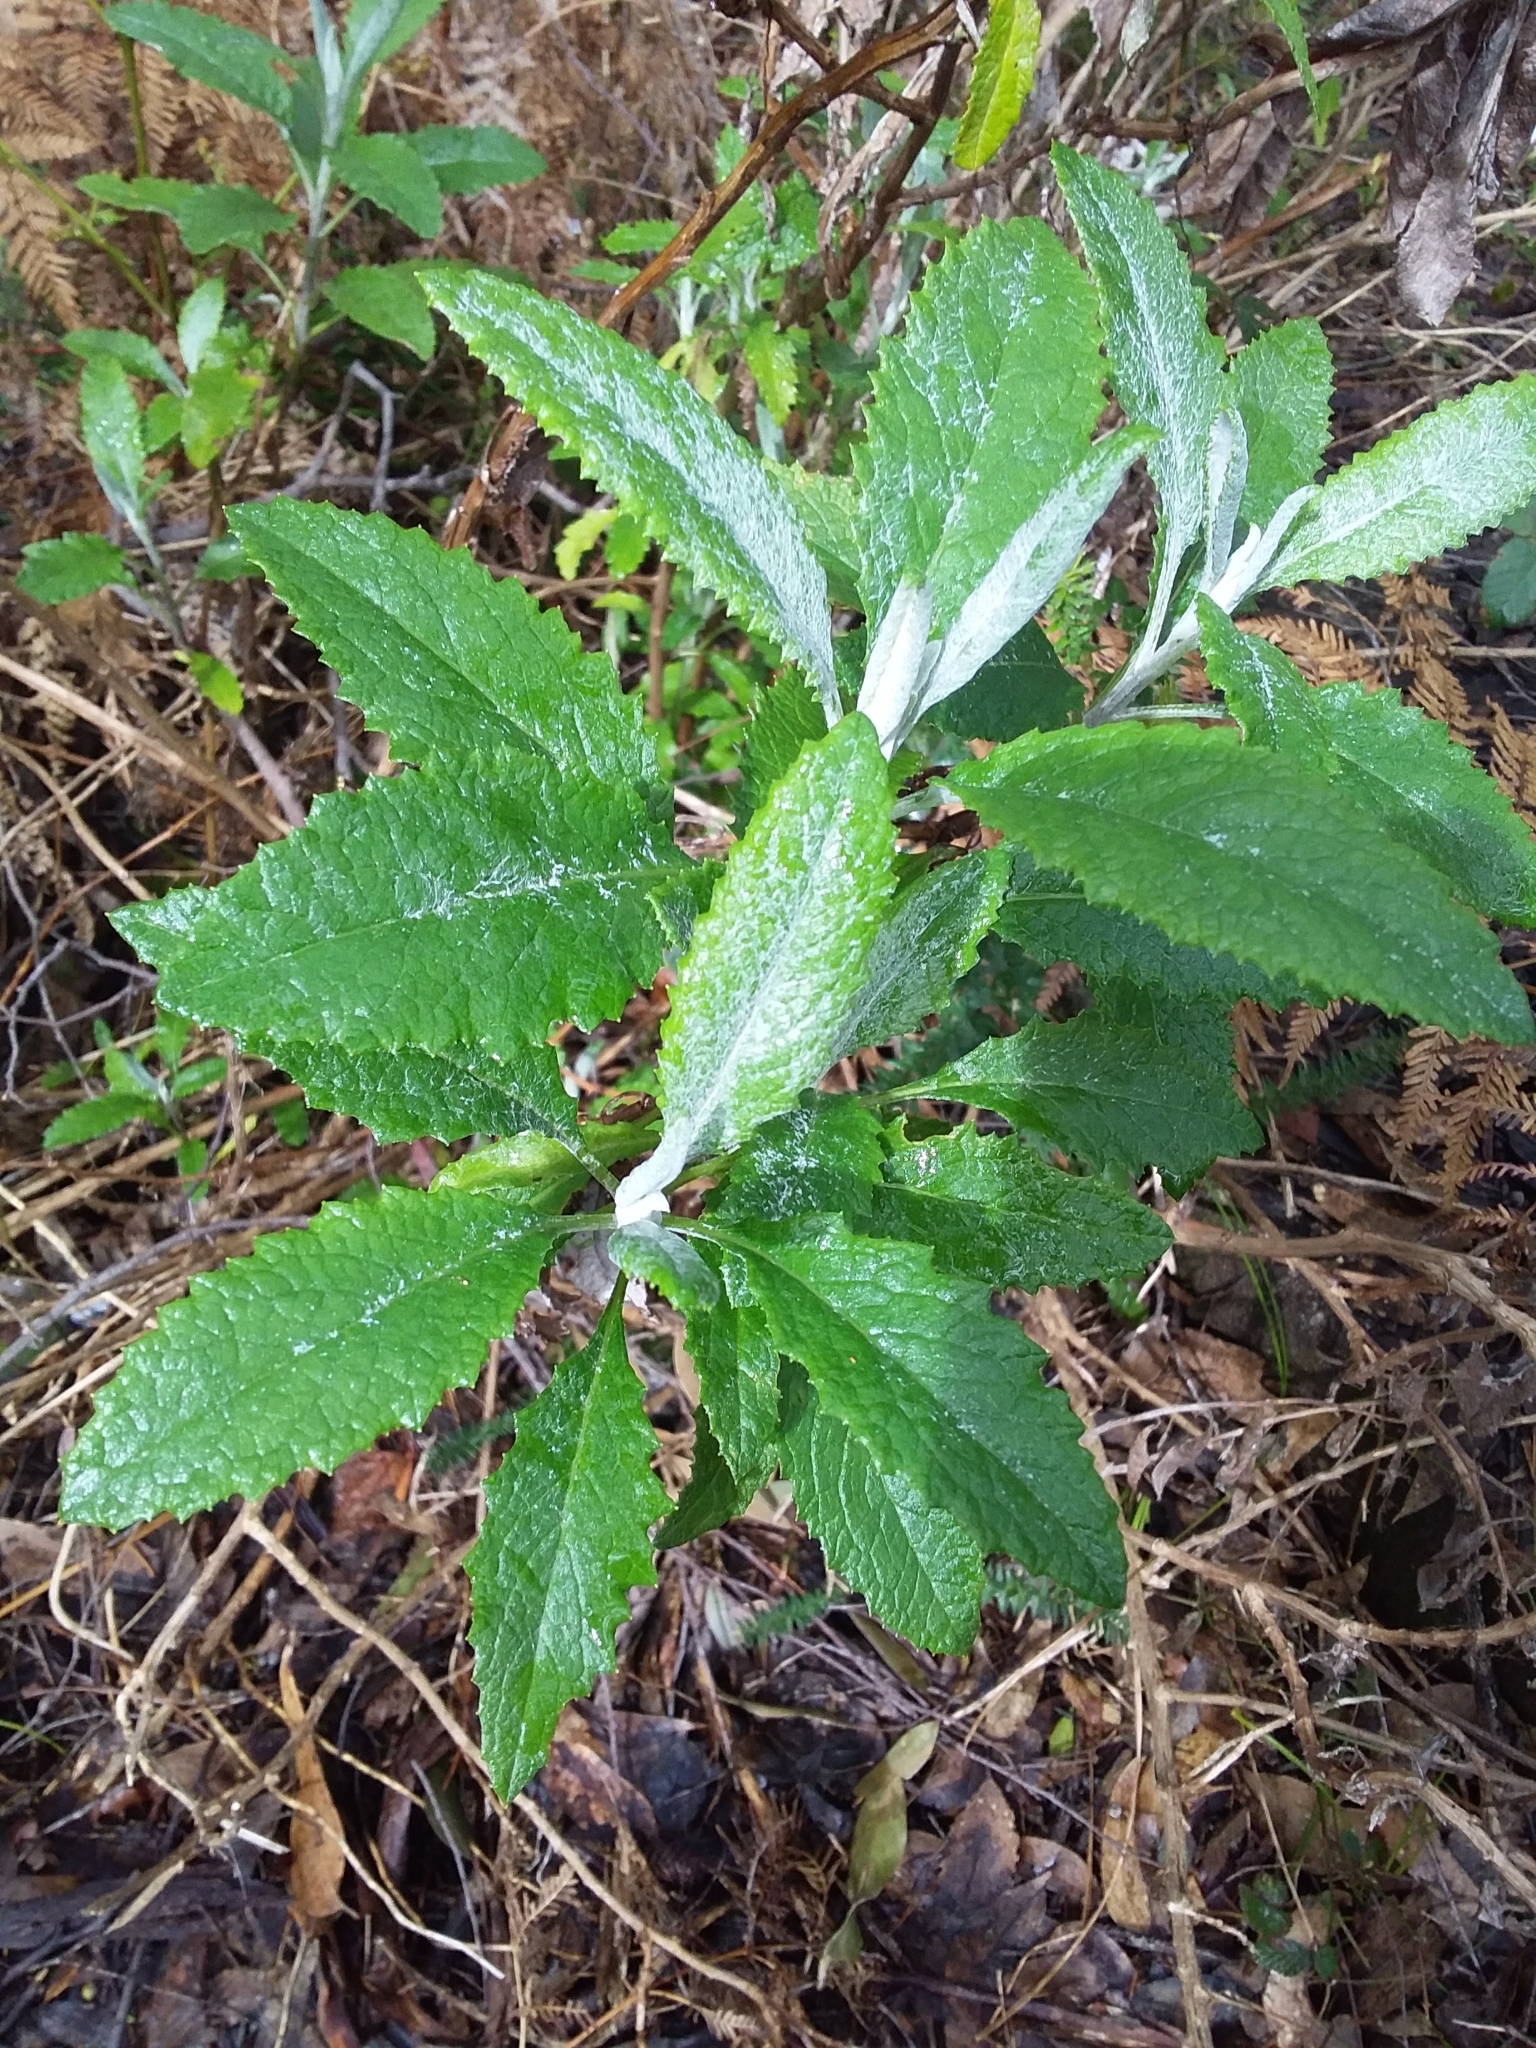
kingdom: Plantae
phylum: Tracheophyta
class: Magnoliopsida
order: Asterales
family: Asteraceae
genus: Senecio
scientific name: Senecio hypoleucus
